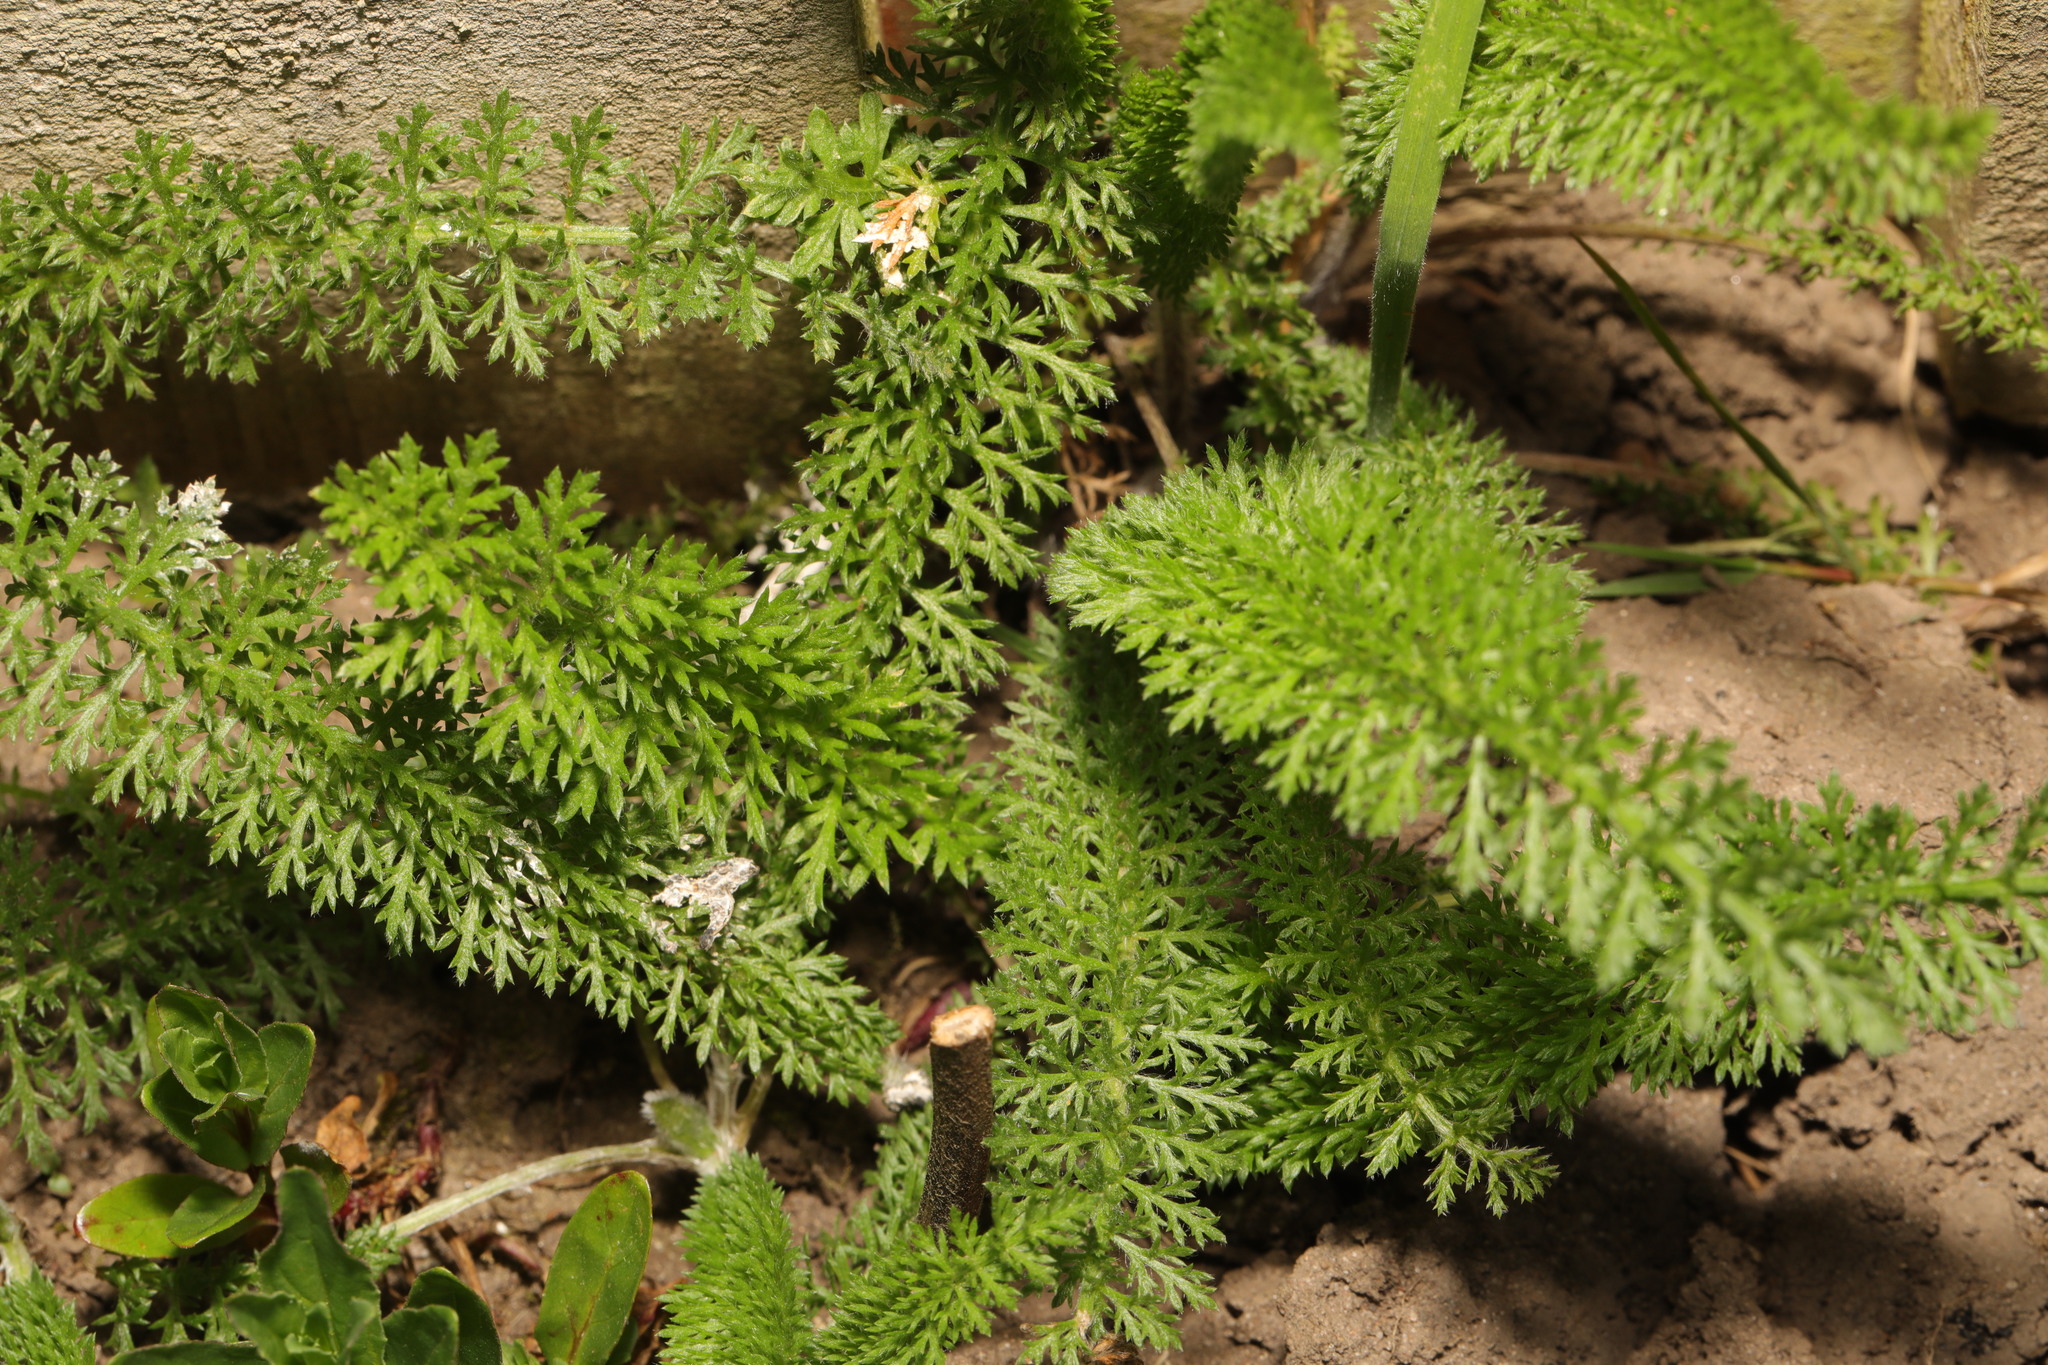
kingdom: Plantae
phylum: Tracheophyta
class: Magnoliopsida
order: Asterales
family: Asteraceae
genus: Achillea
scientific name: Achillea millefolium
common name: Yarrow
